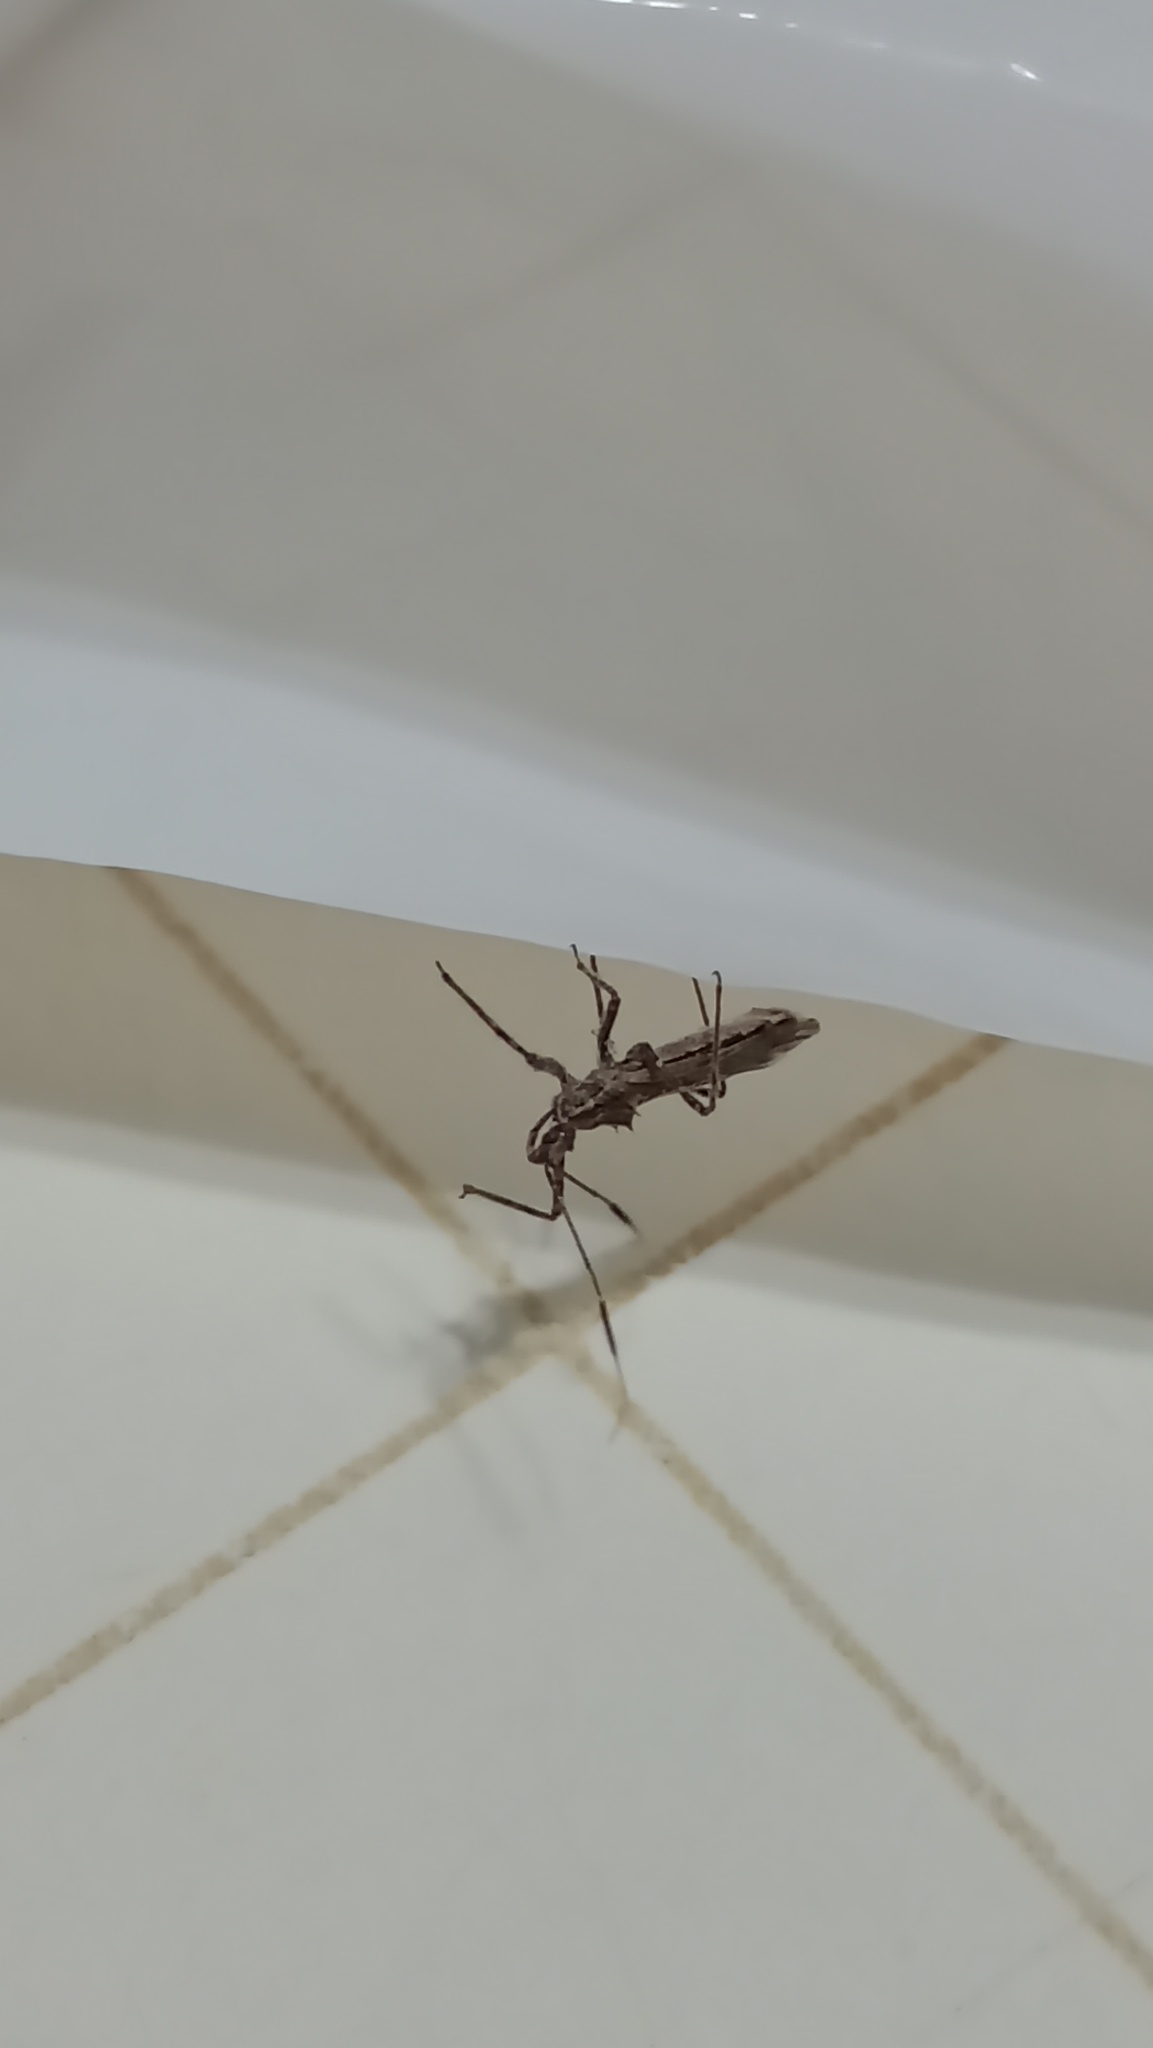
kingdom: Animalia
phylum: Arthropoda
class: Insecta
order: Hemiptera
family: Reduviidae
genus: Atrachelus
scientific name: Atrachelus cinereus
